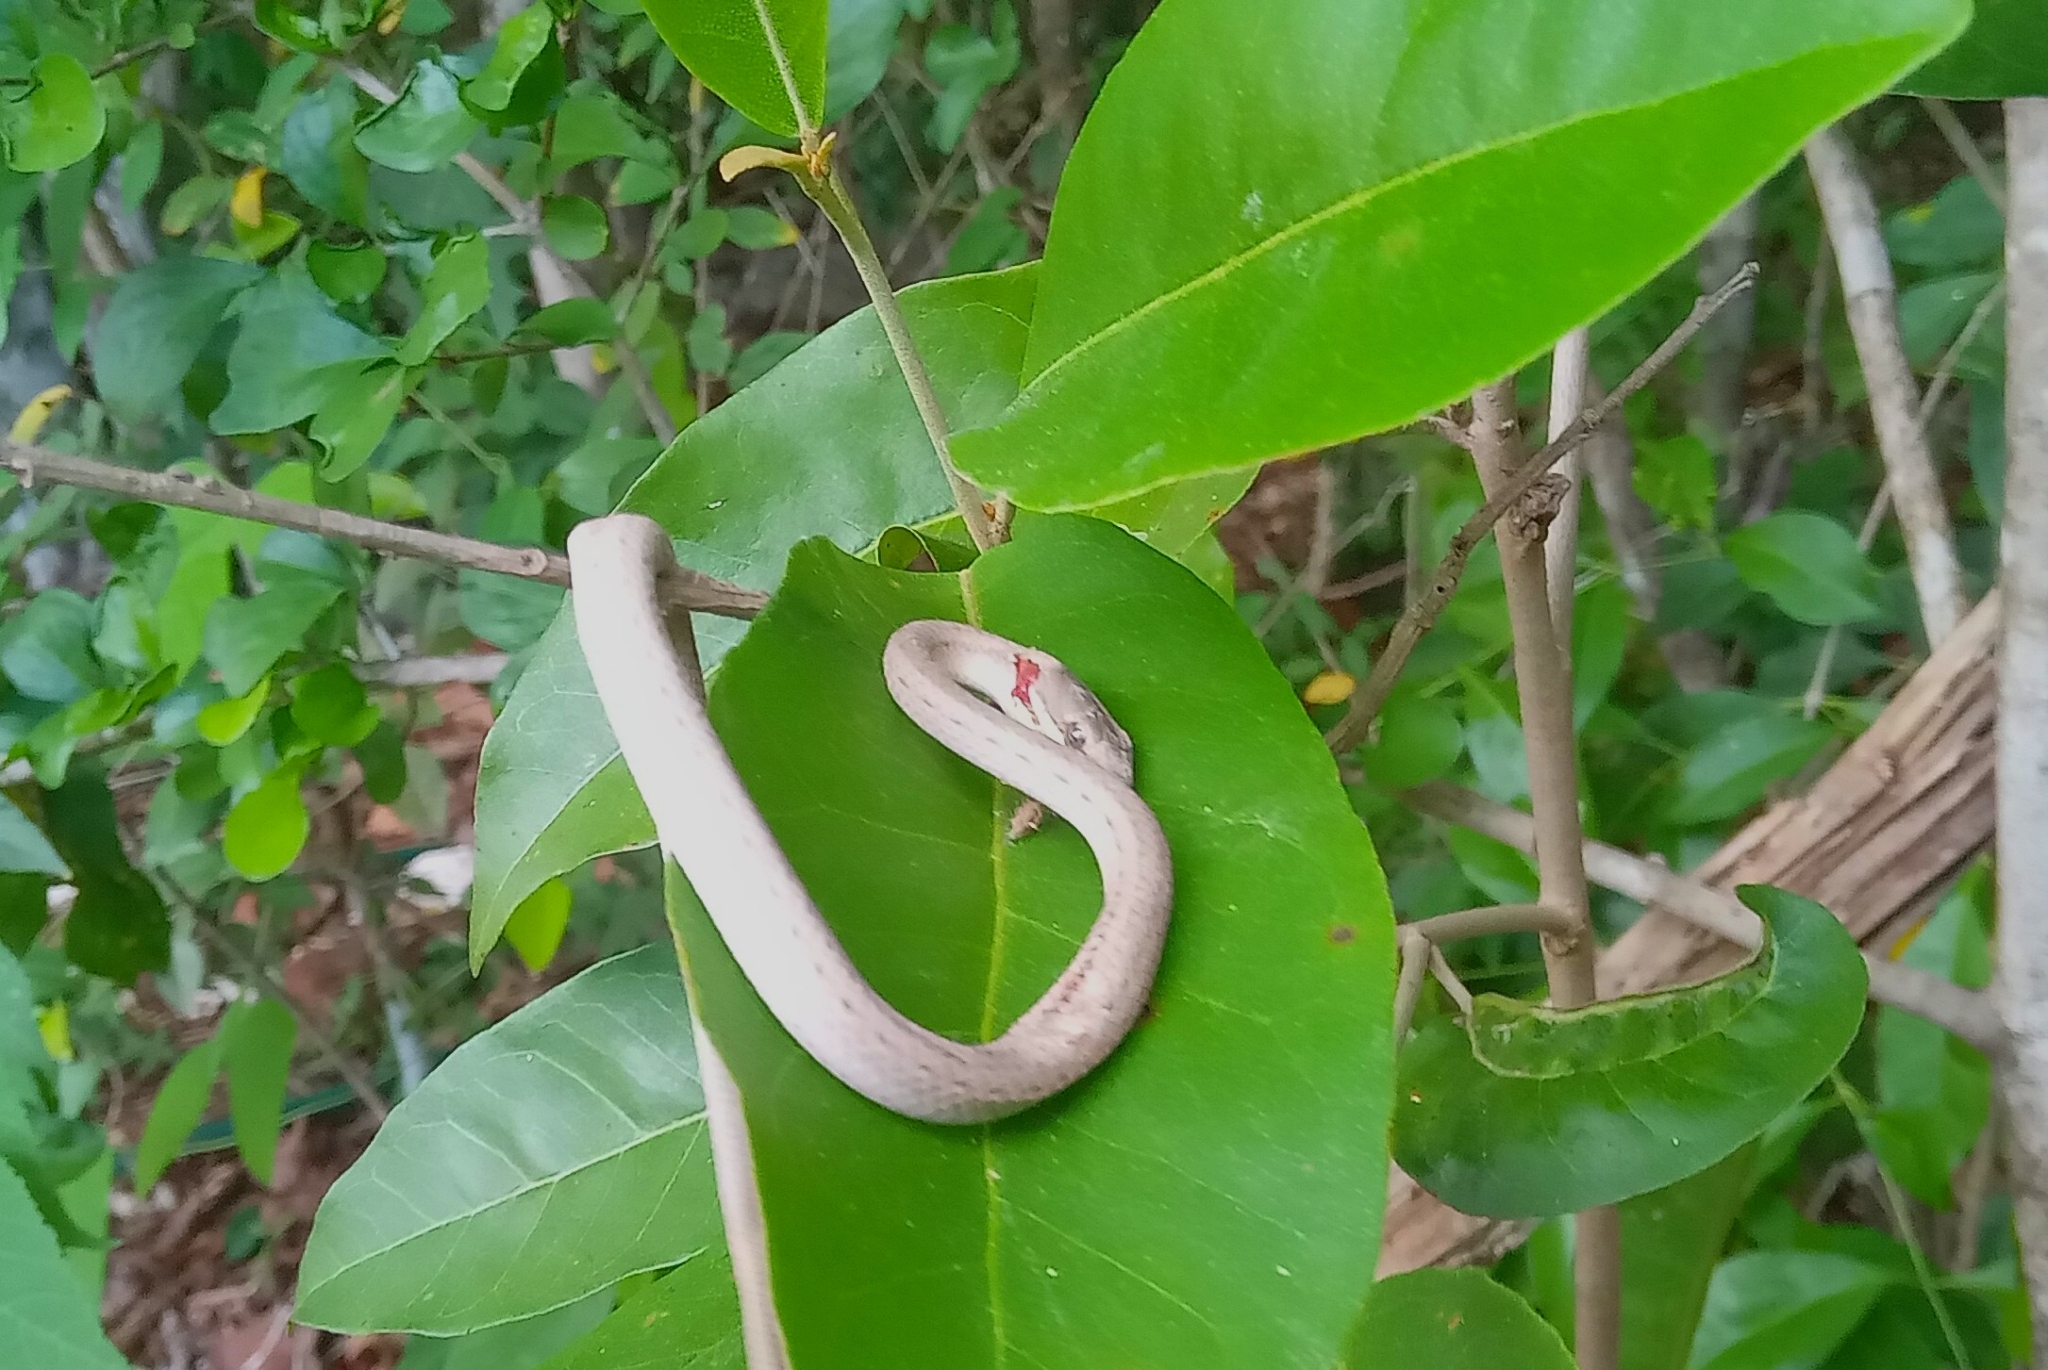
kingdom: Animalia
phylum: Chordata
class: Squamata
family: Colubridae
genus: Symphimus
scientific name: Symphimus mayae
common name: Yucatán white-lipped snake
